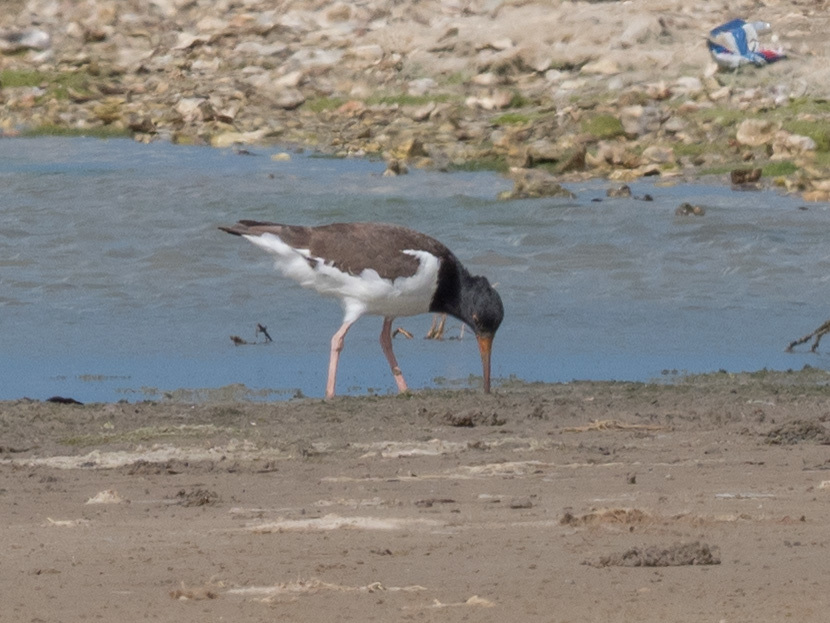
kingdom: Animalia
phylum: Chordata
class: Aves
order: Charadriiformes
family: Haematopodidae
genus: Haematopus
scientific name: Haematopus palliatus
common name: American oystercatcher
